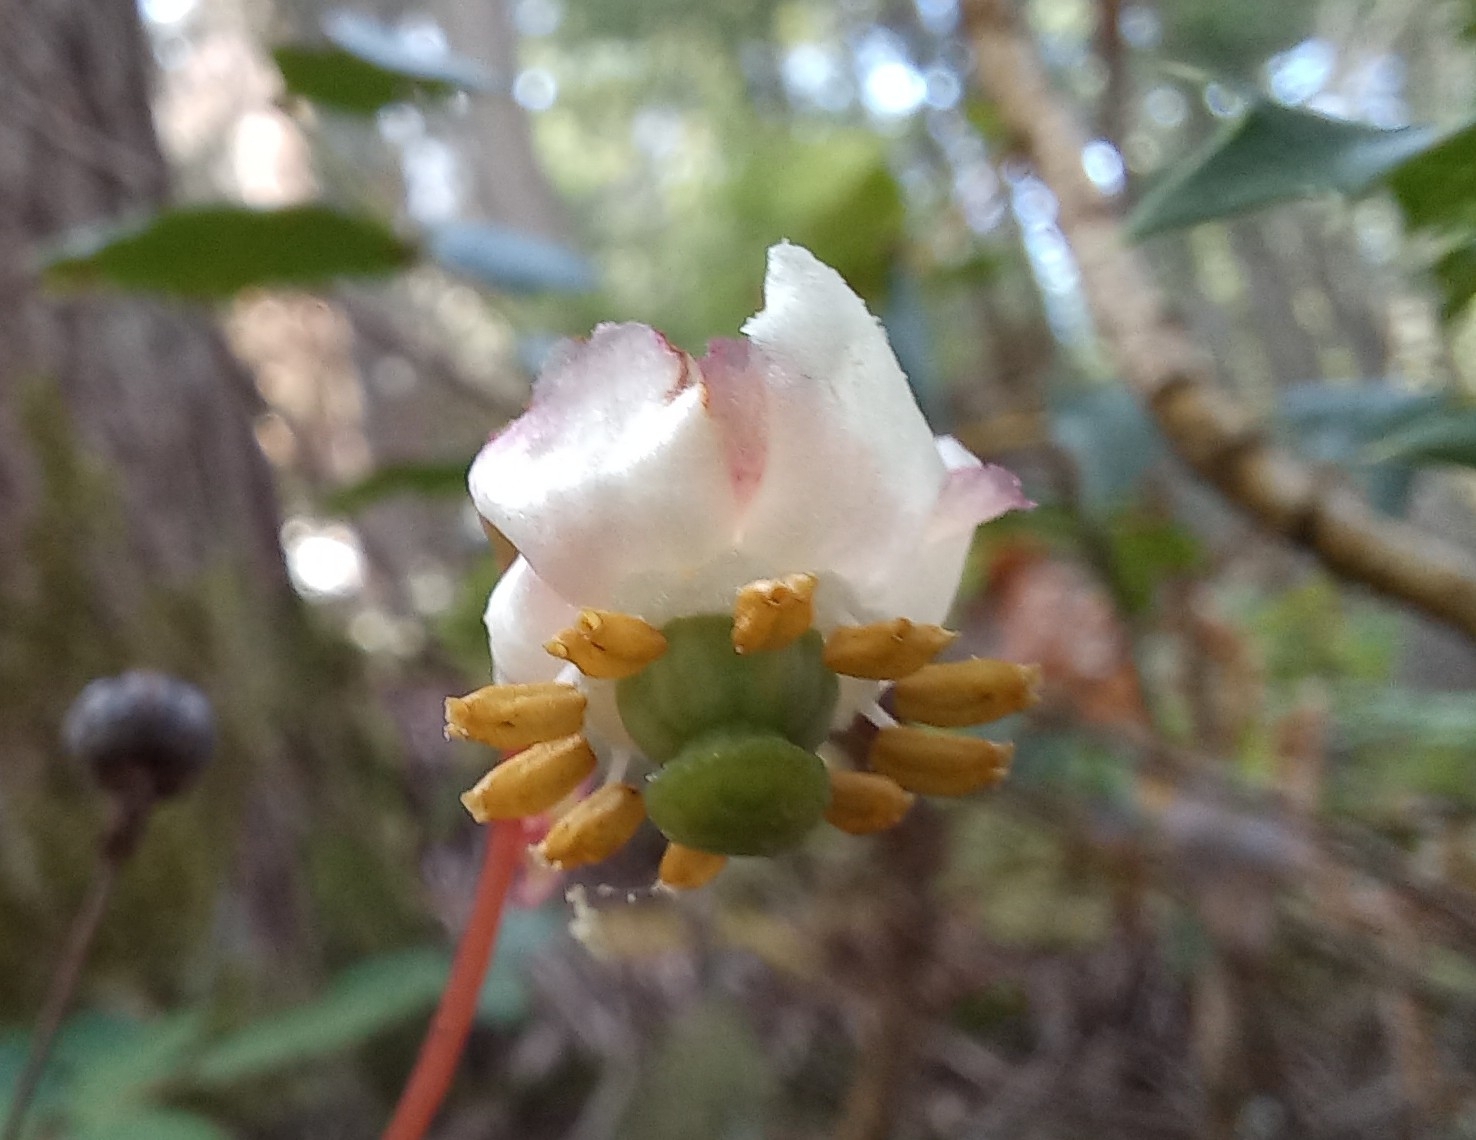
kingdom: Plantae
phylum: Tracheophyta
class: Magnoliopsida
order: Ericales
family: Ericaceae
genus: Chimaphila
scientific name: Chimaphila menziesii
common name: Menzies' pipsissewa
